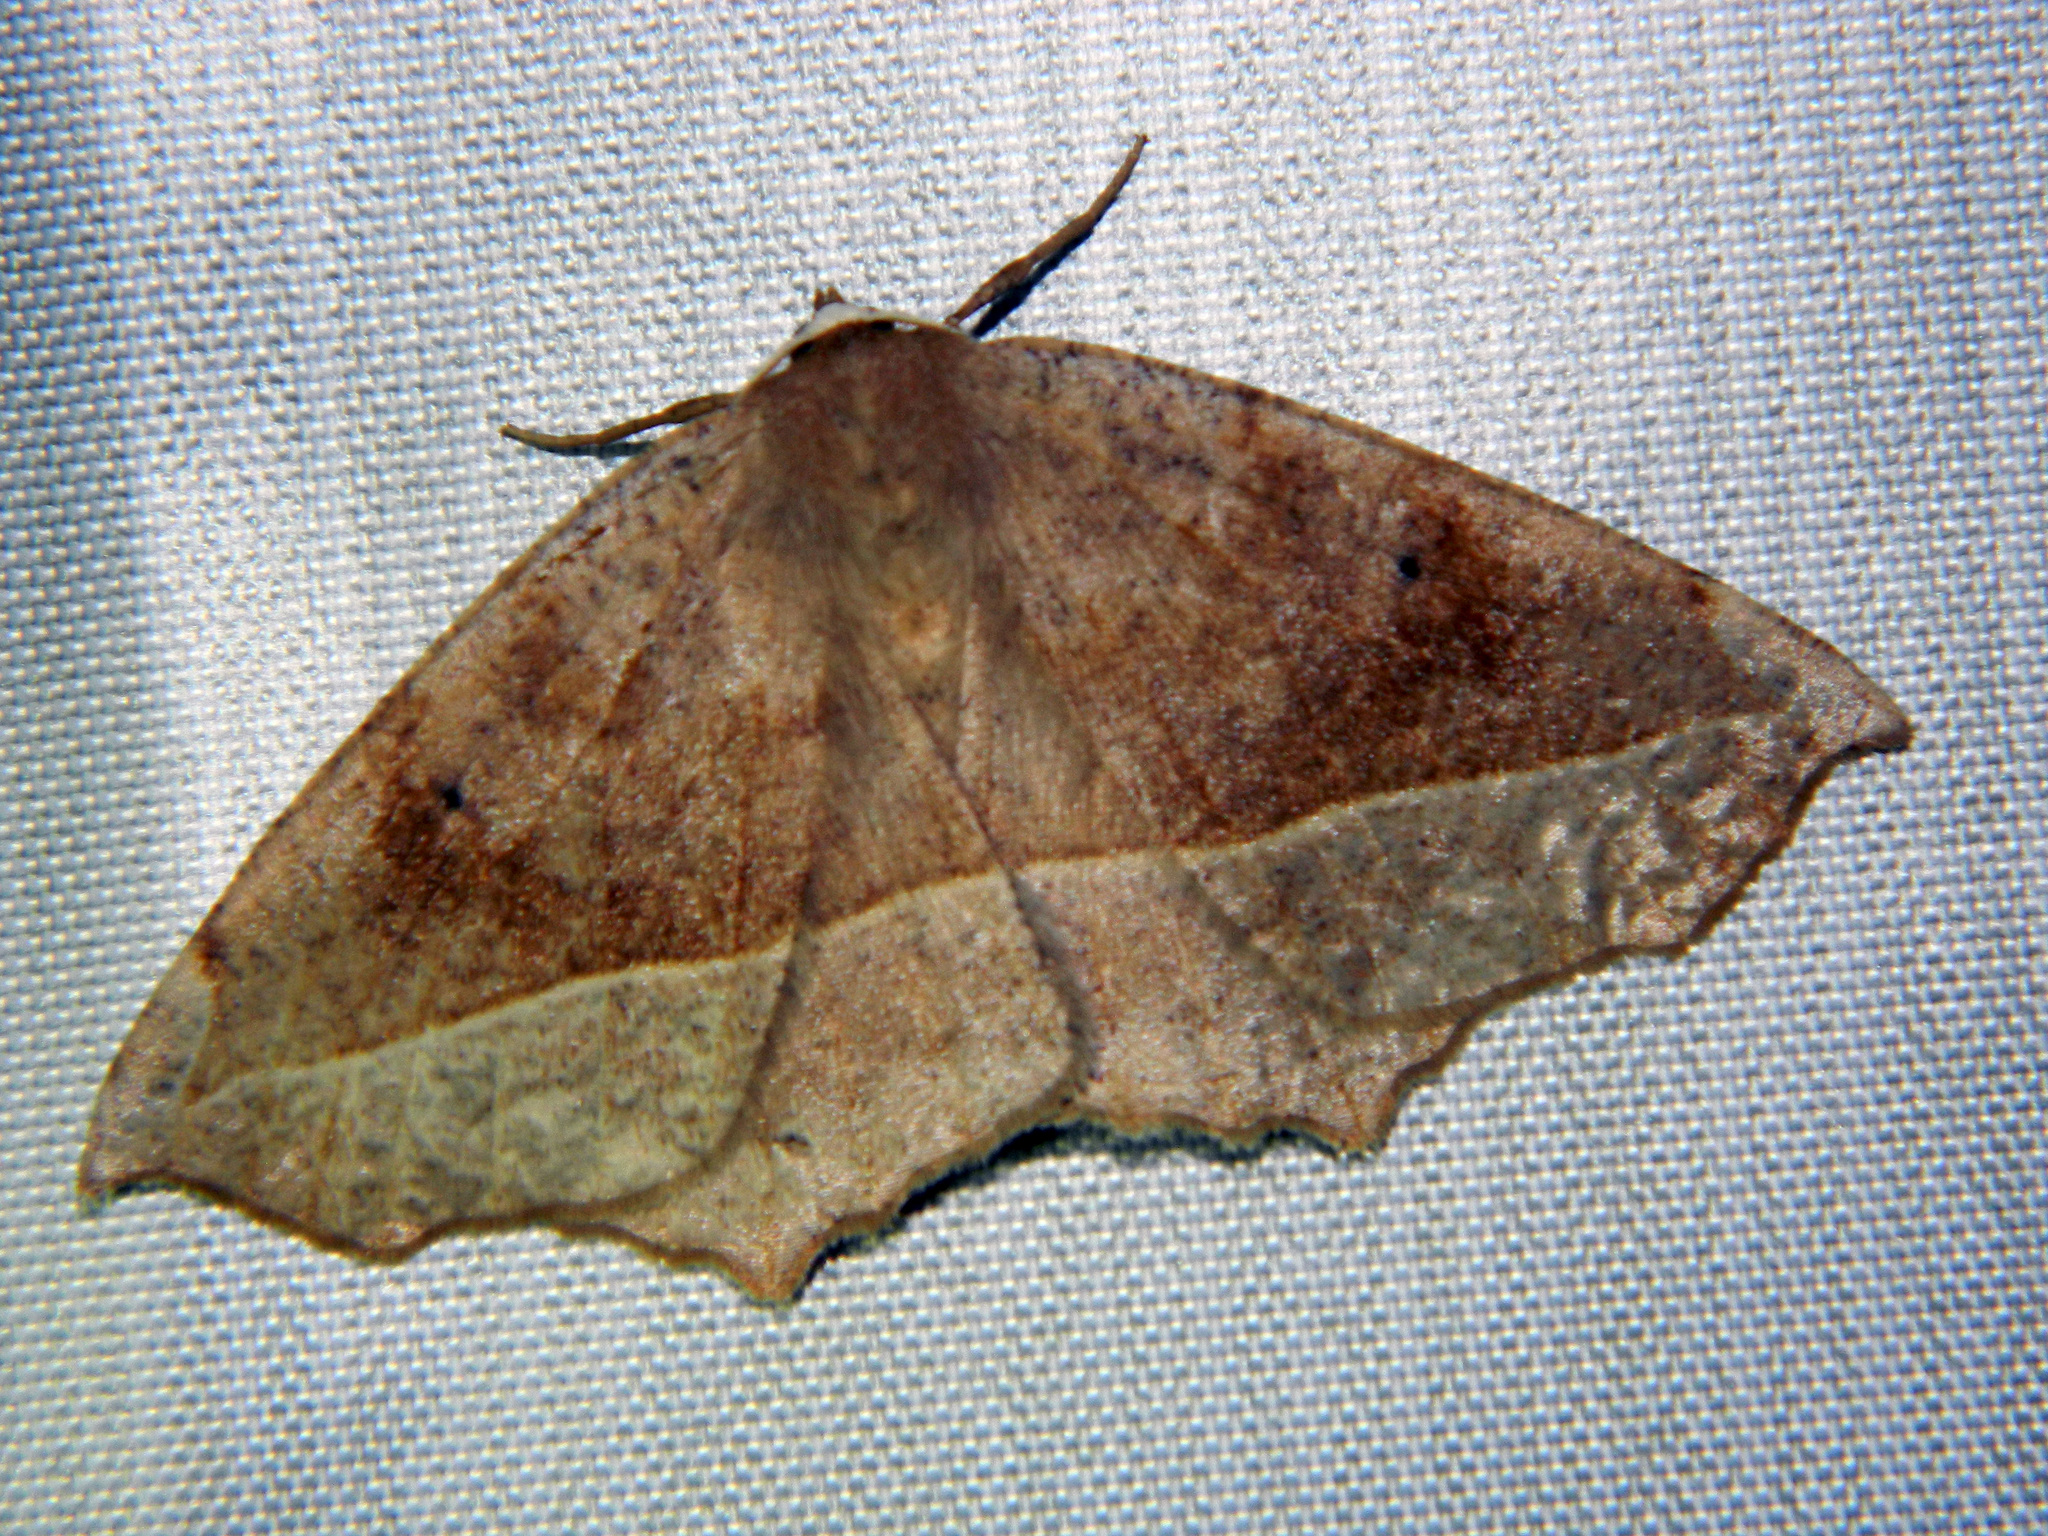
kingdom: Animalia
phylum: Arthropoda
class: Insecta
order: Lepidoptera
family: Geometridae
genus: Eutrapela
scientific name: Eutrapela clemataria
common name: Curved-toothed geometer
